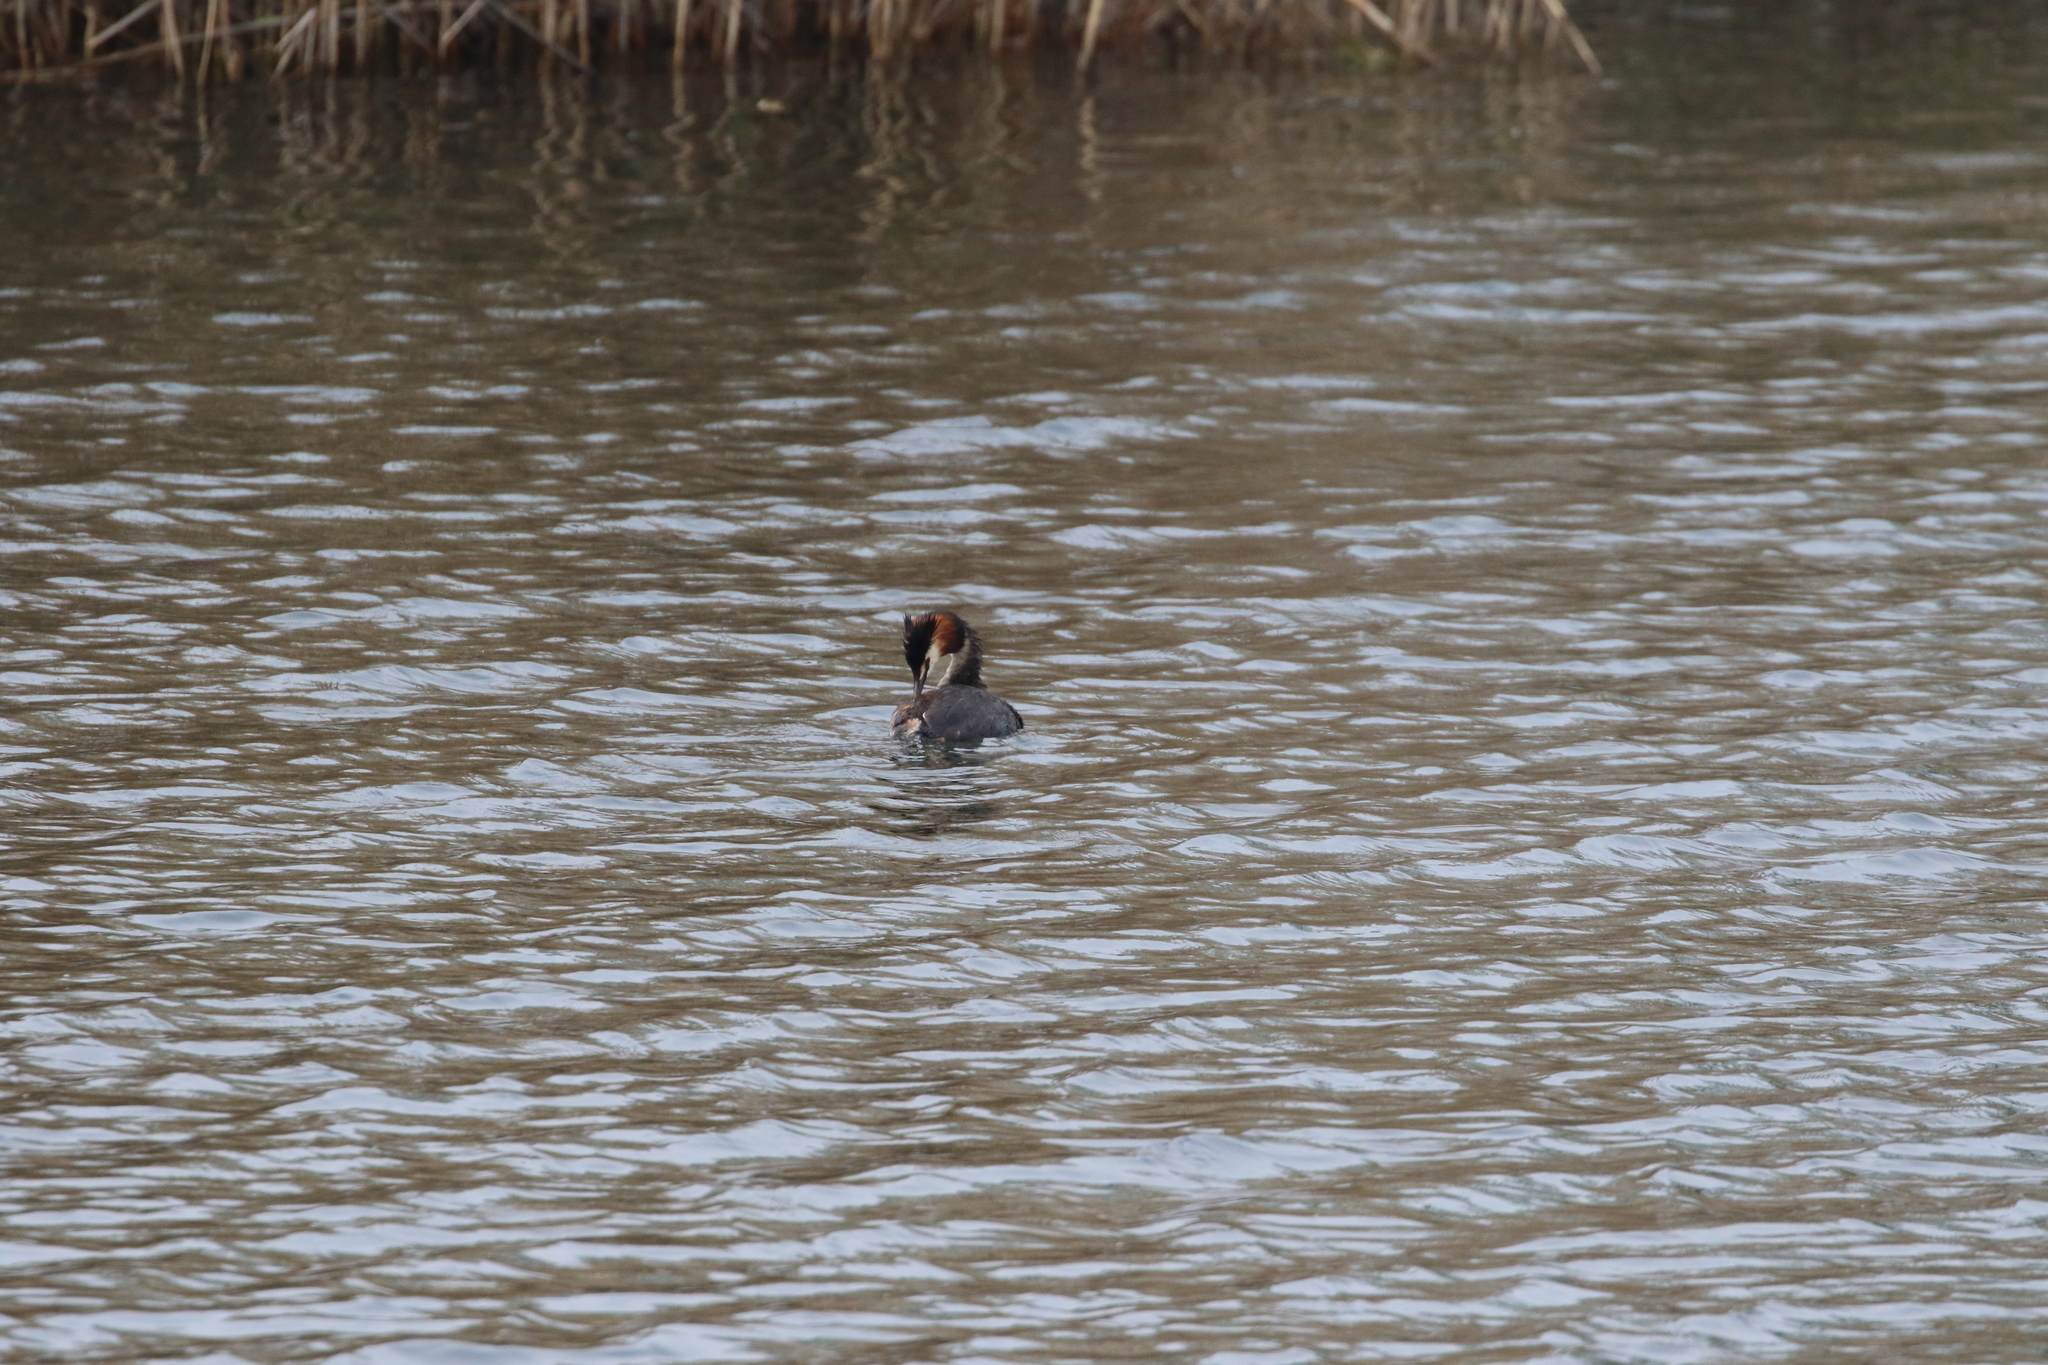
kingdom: Animalia
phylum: Chordata
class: Aves
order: Podicipediformes
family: Podicipedidae
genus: Podiceps
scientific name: Podiceps cristatus
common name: Great crested grebe
